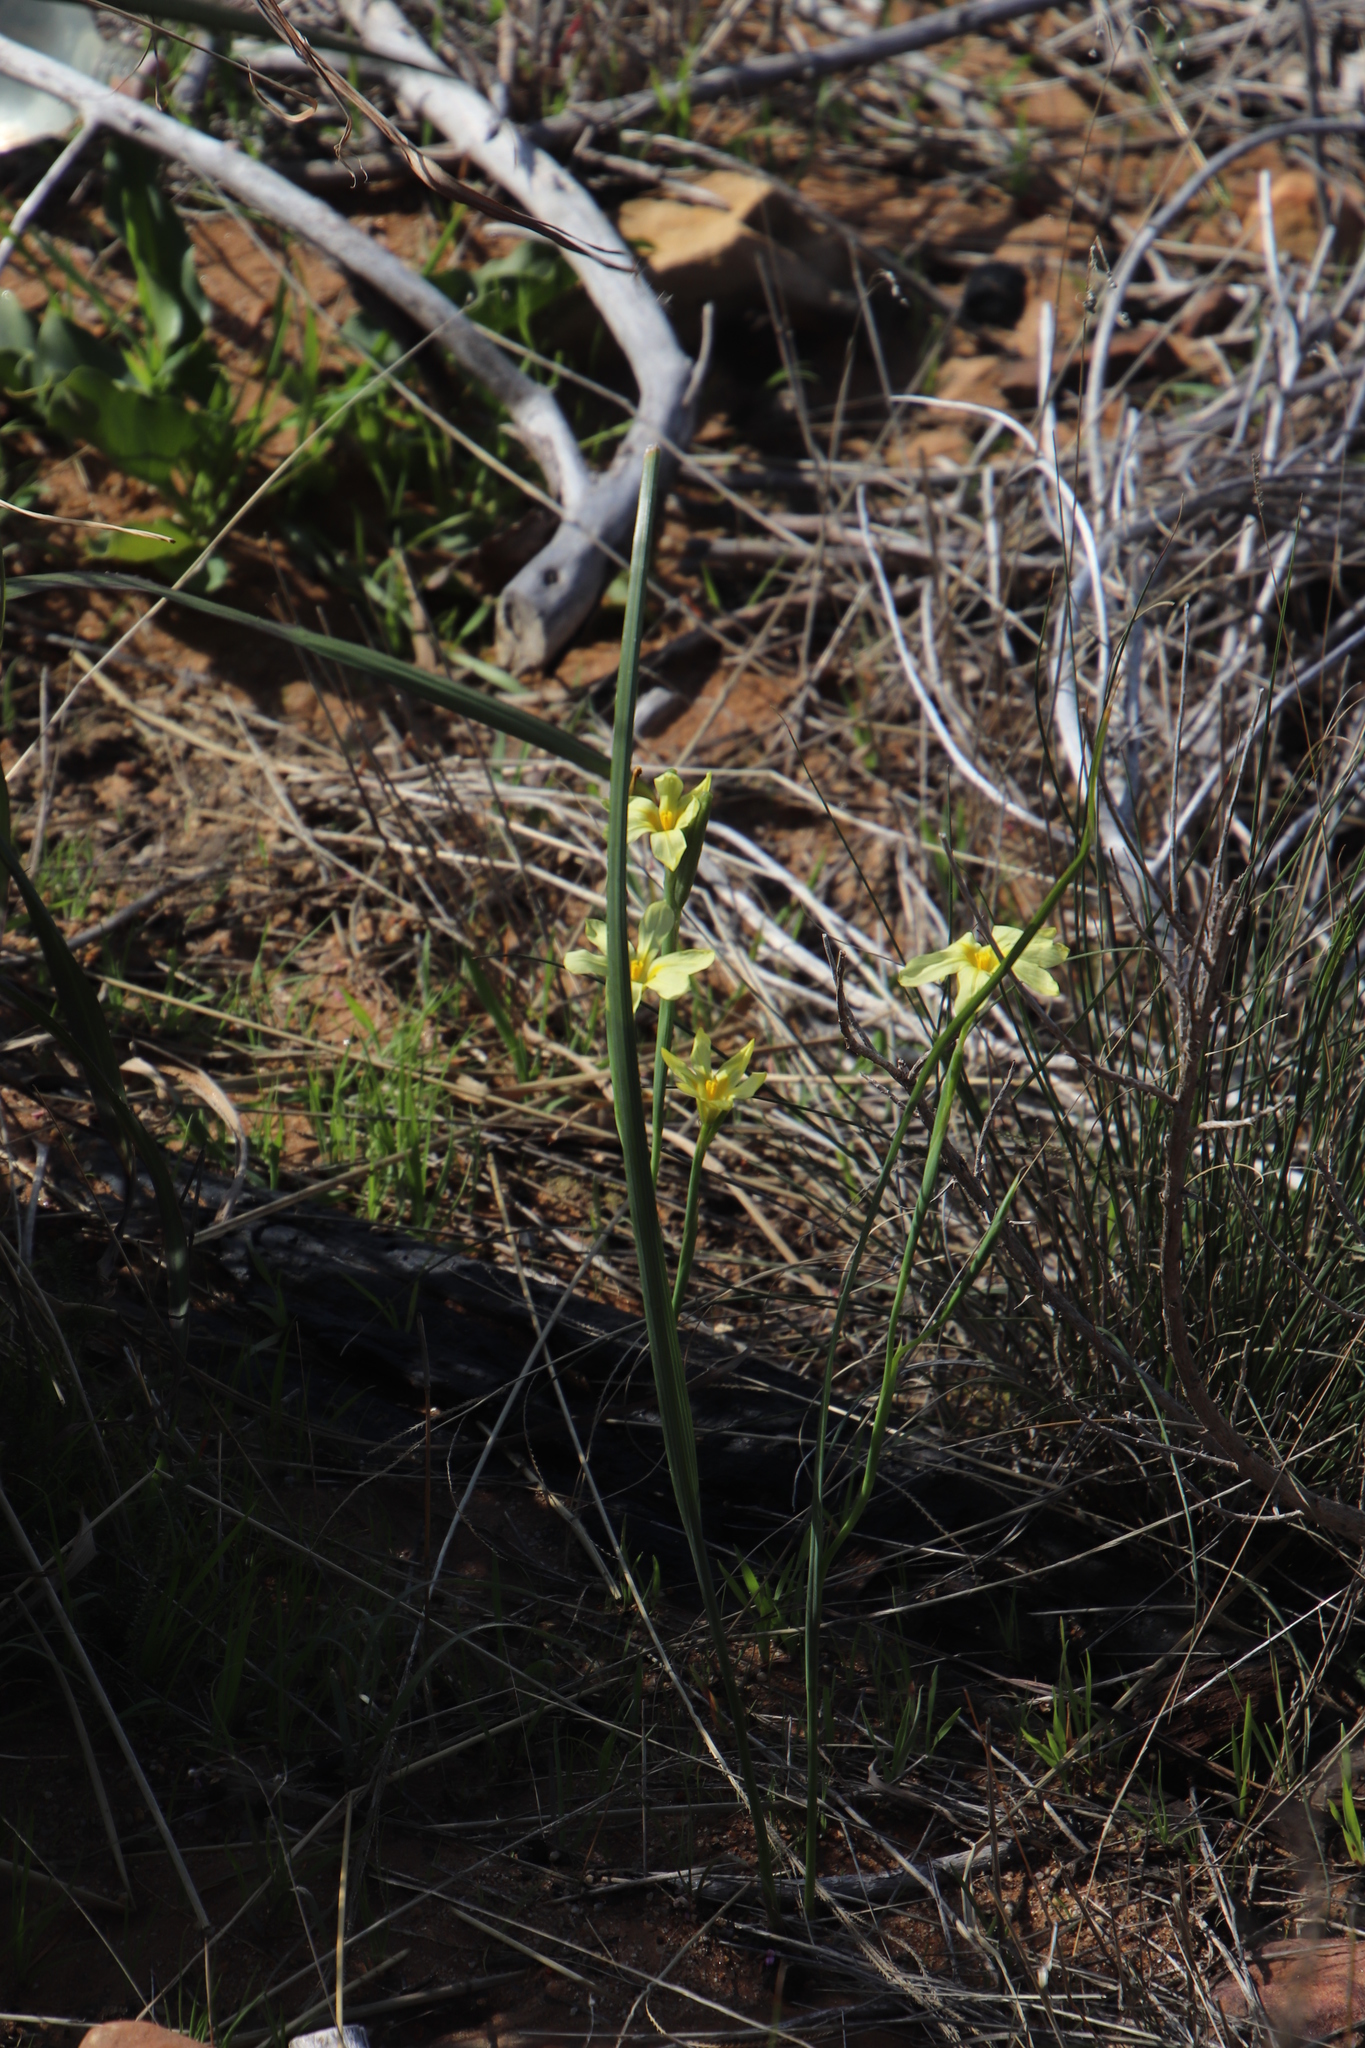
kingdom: Plantae
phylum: Tracheophyta
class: Liliopsida
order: Asparagales
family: Iridaceae
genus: Moraea
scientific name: Moraea collina
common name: Cape-tulip
